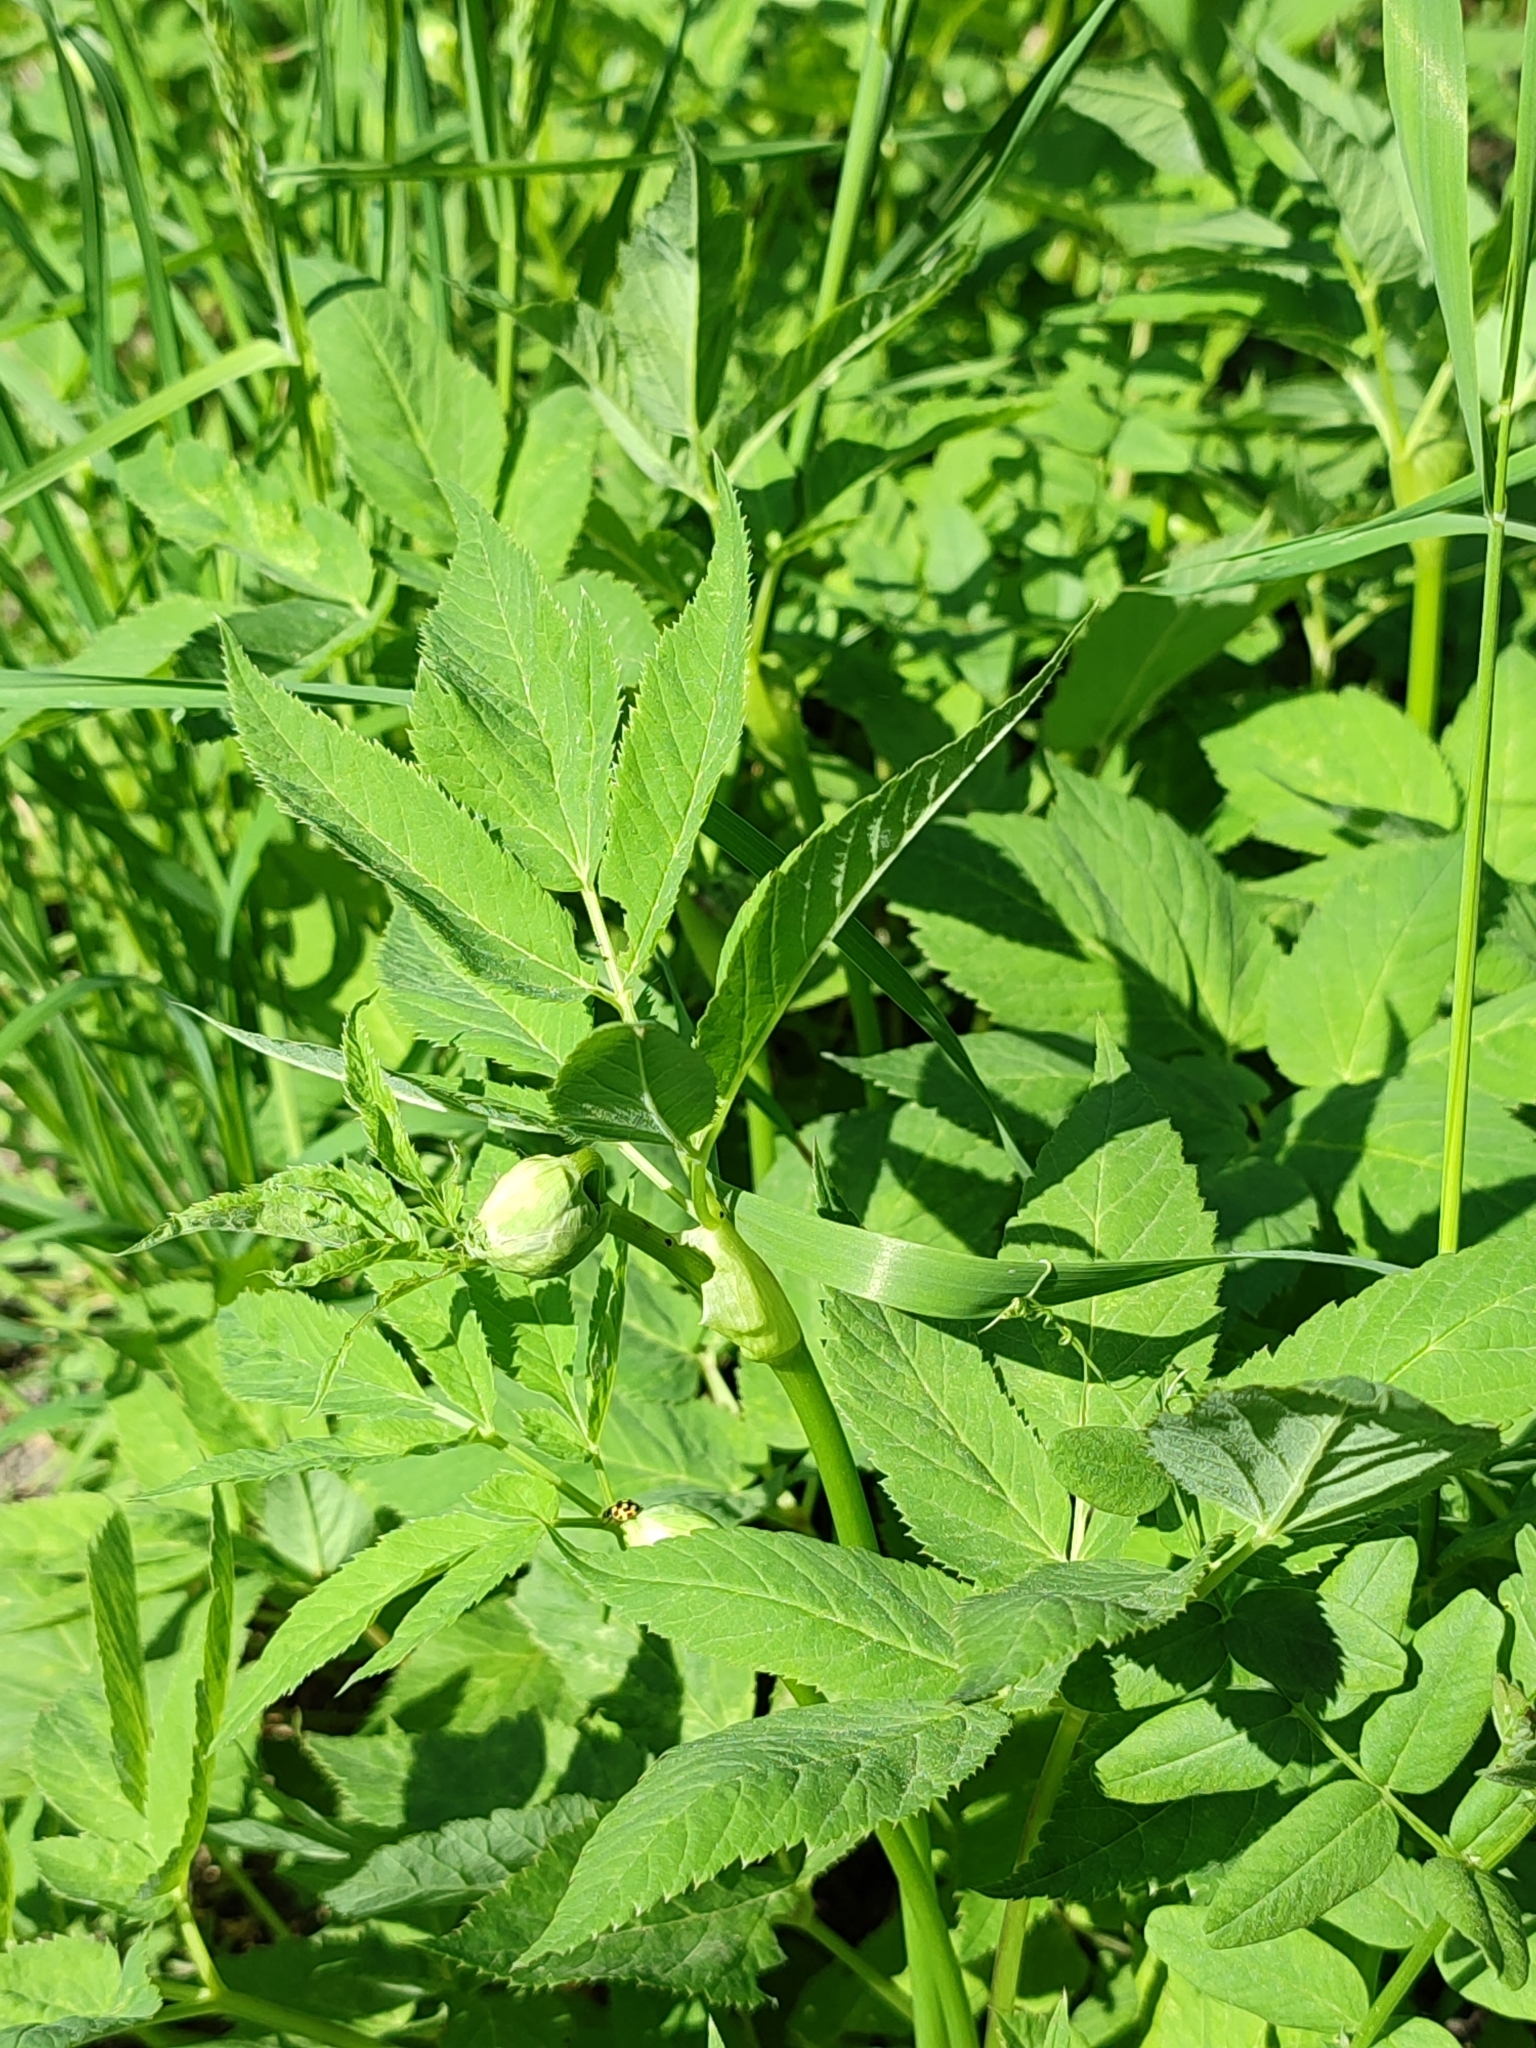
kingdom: Plantae
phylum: Tracheophyta
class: Magnoliopsida
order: Apiales
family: Apiaceae
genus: Aegopodium
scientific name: Aegopodium podagraria
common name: Ground-elder
